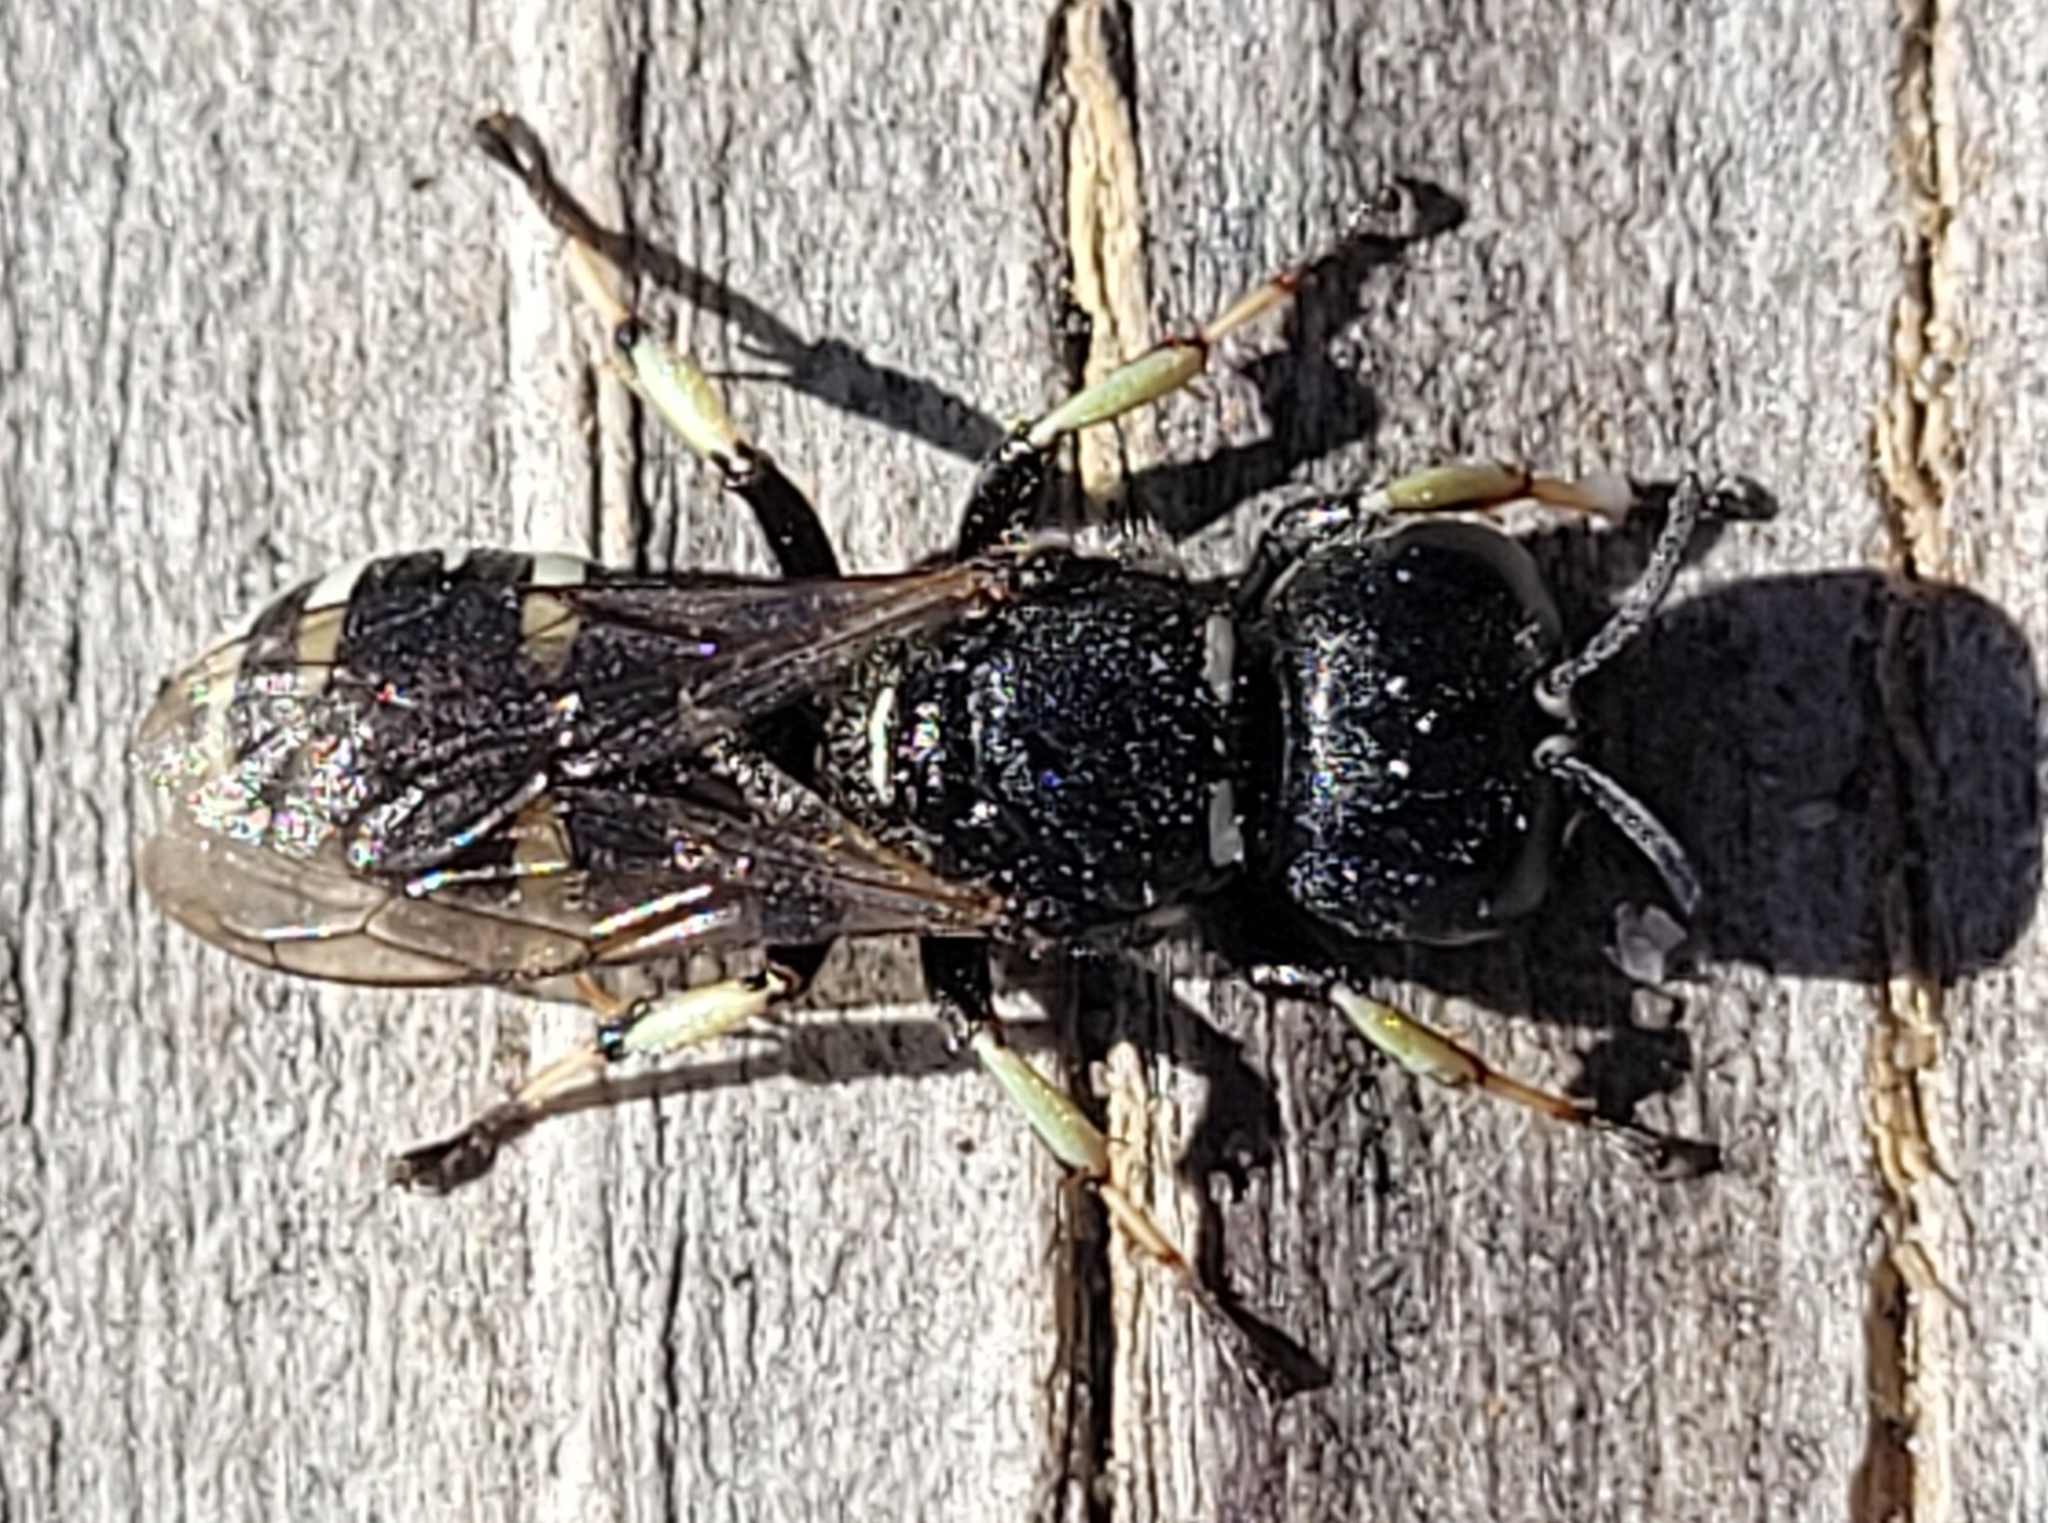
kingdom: Animalia
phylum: Arthropoda
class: Insecta
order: Hymenoptera
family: Crabronidae
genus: Ectemnius
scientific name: Ectemnius trifasciatus
